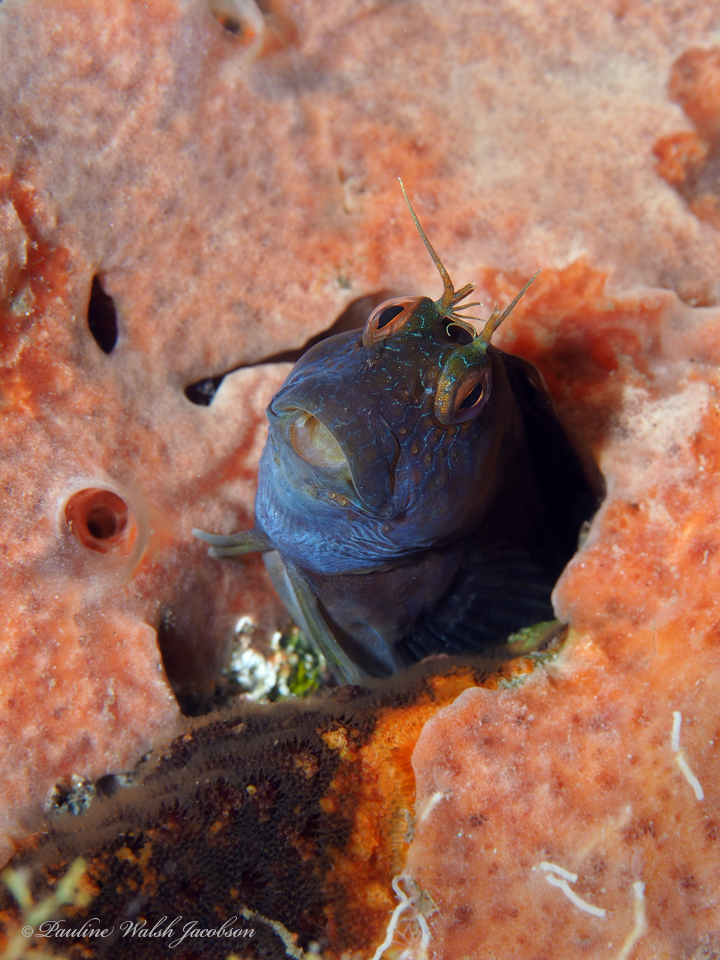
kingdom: Animalia
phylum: Chordata
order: Perciformes
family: Blenniidae
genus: Parablennius
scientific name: Parablennius marmoreus
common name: Seaweed blenny
